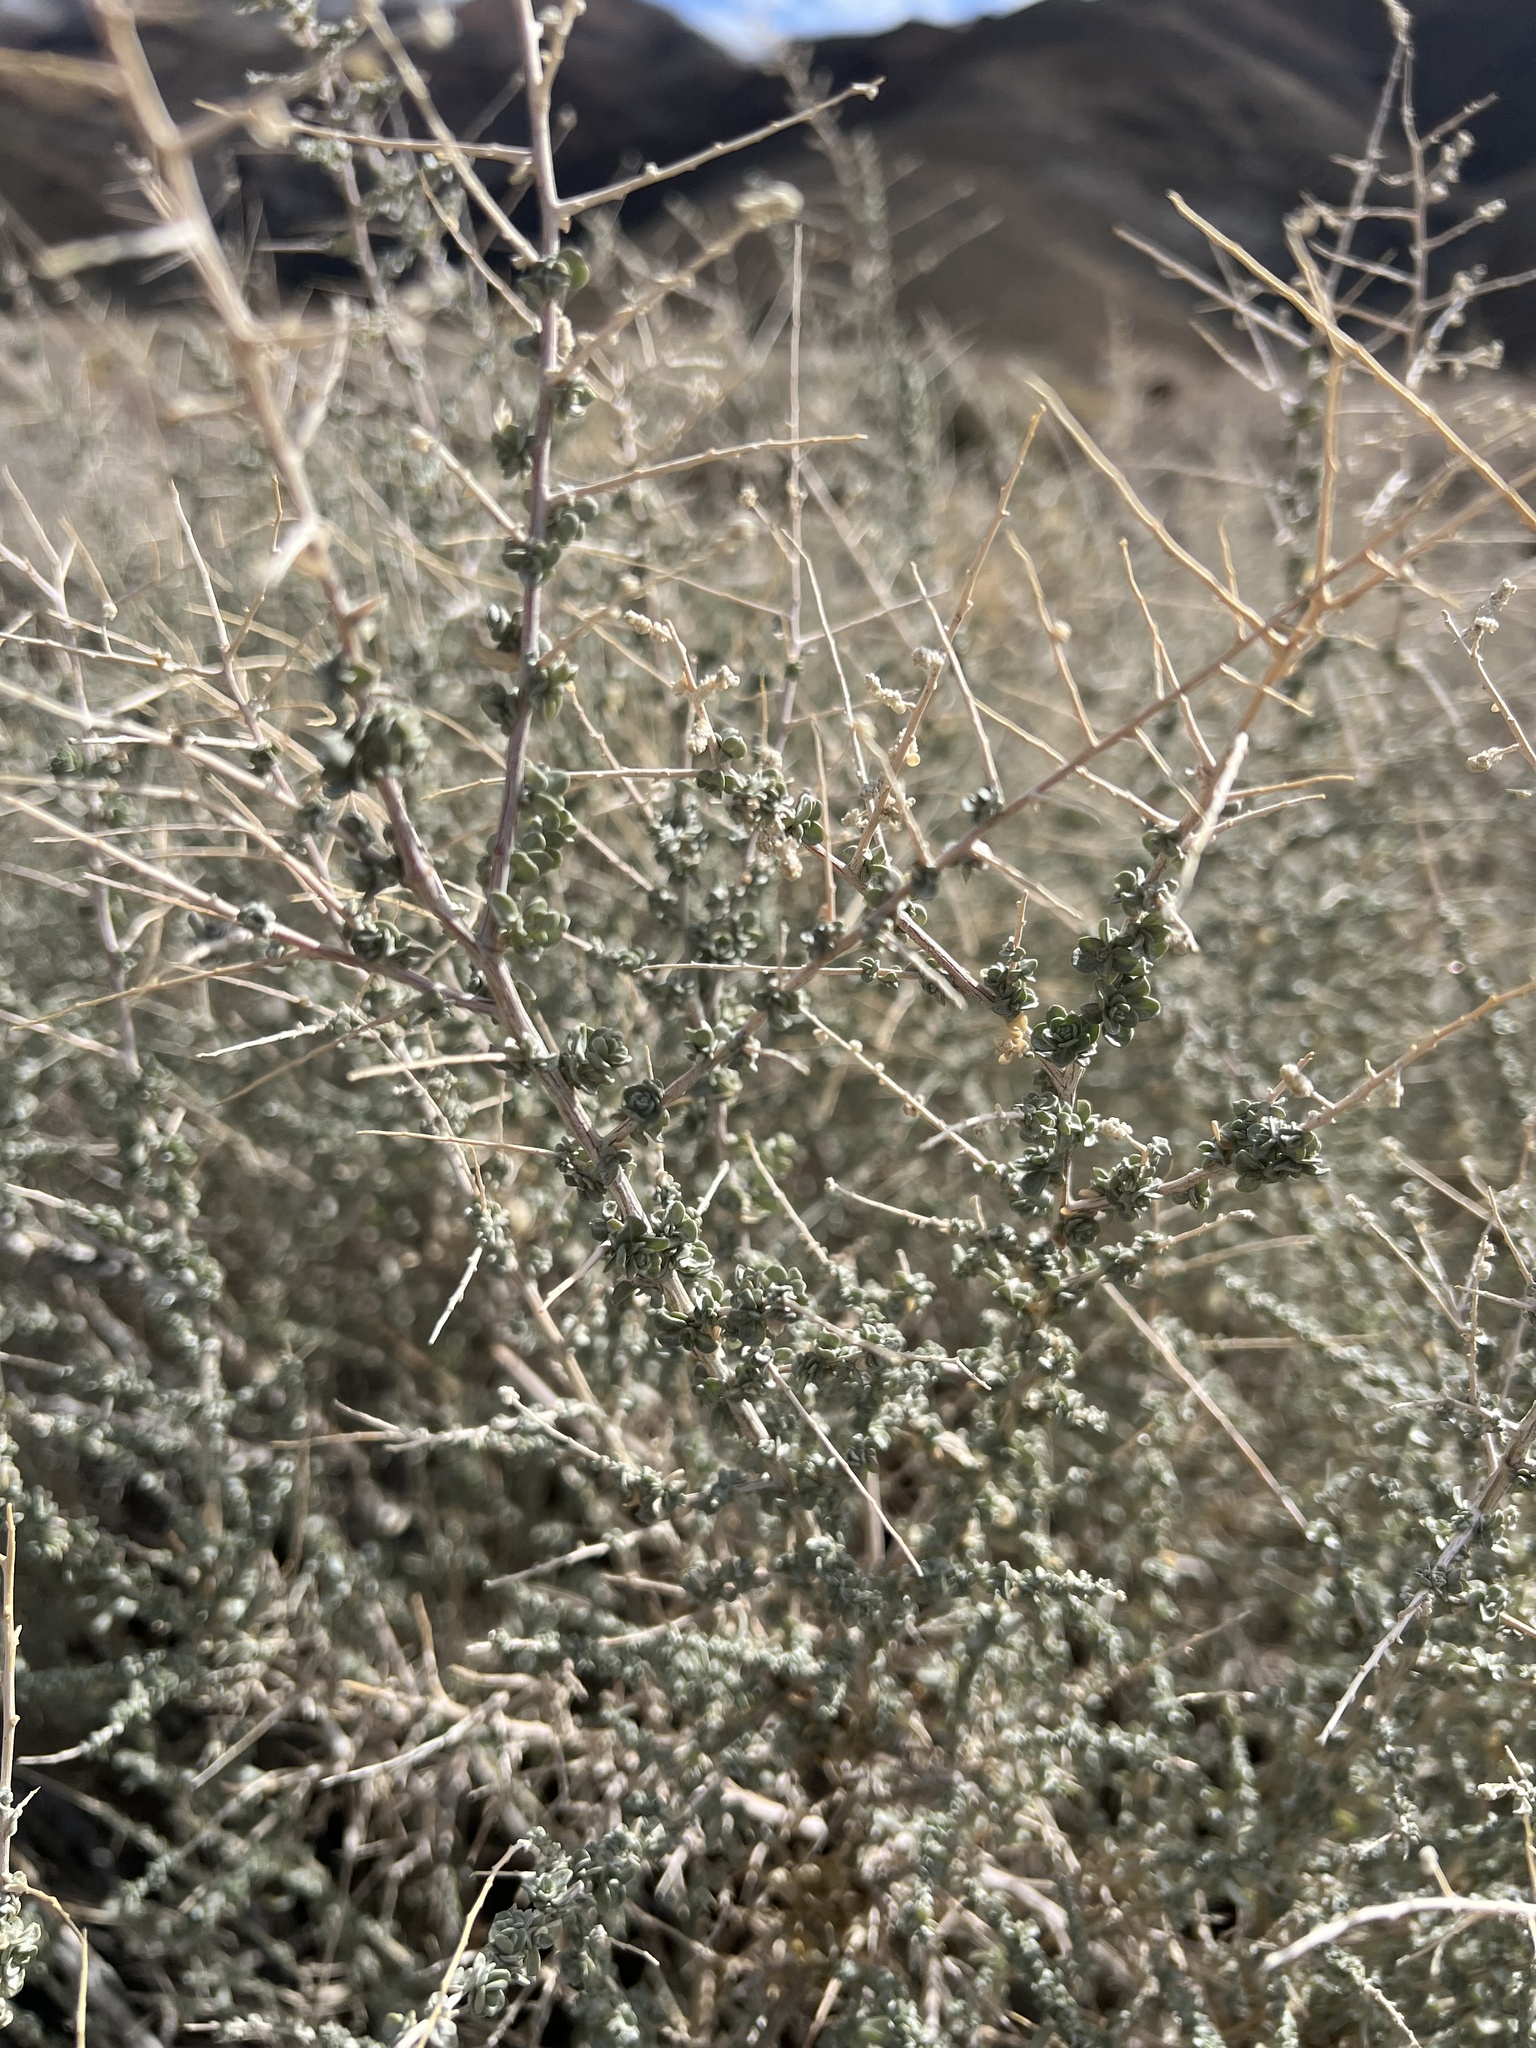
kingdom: Plantae
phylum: Tracheophyta
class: Magnoliopsida
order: Caryophyllales
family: Amaranthaceae
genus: Atriplex
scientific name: Atriplex polycarpa
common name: Desert saltbush
